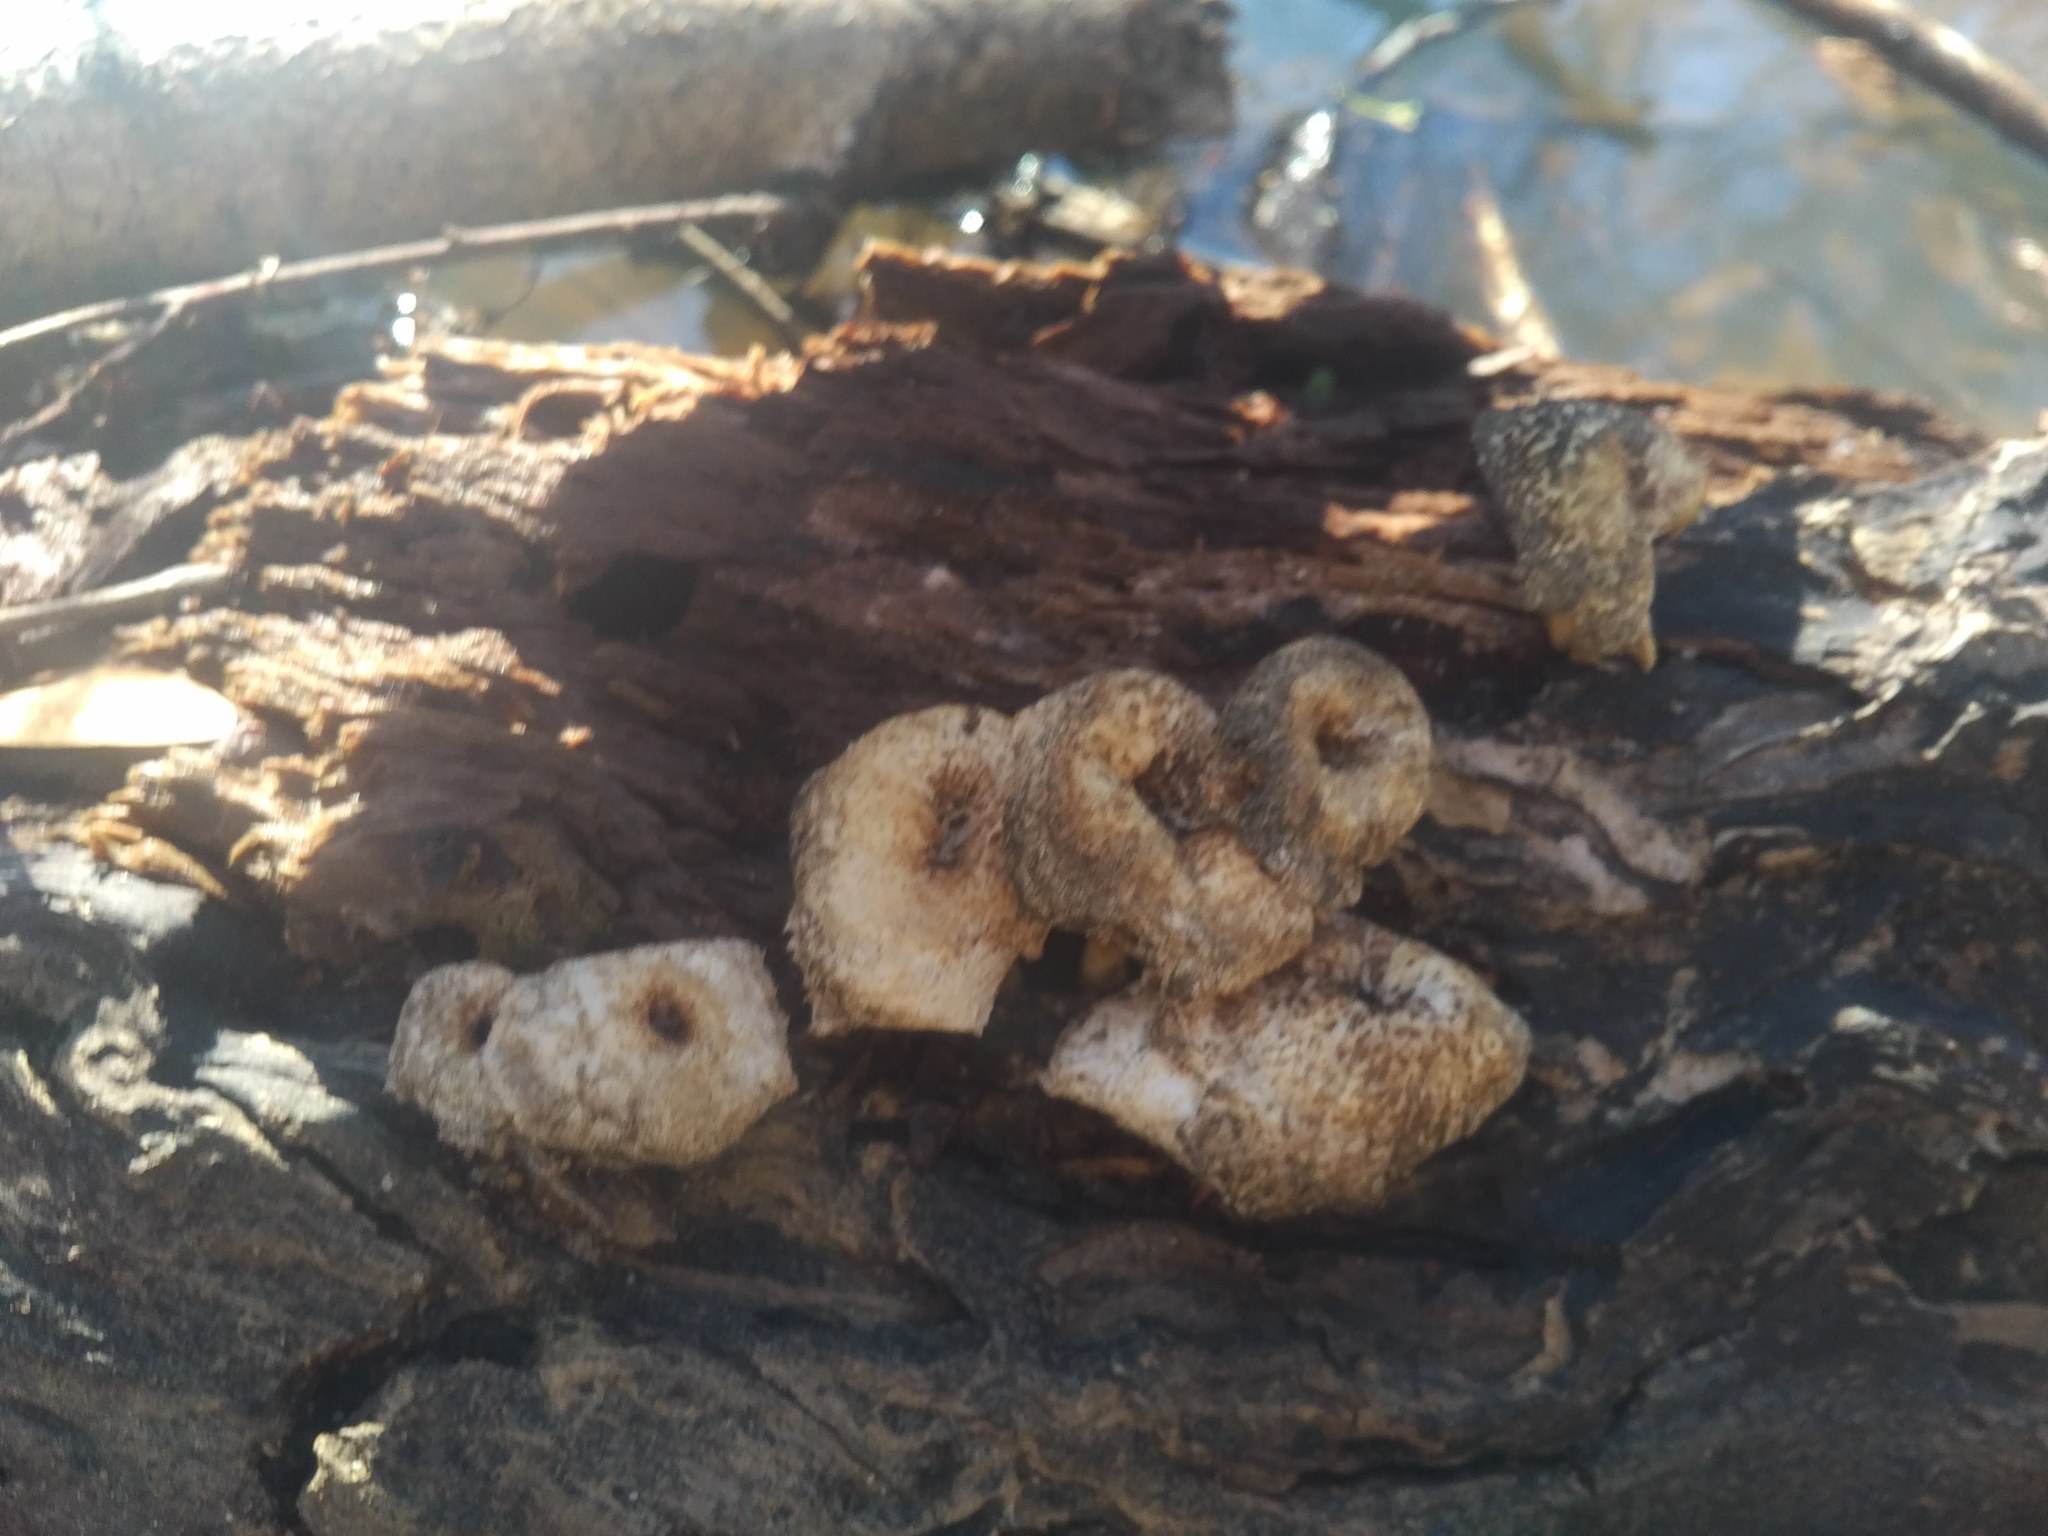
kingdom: Fungi
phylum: Basidiomycota
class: Agaricomycetes
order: Polyporales
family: Polyporaceae
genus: Lentinus
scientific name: Lentinus tigrinus
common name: Tiger sawgill
